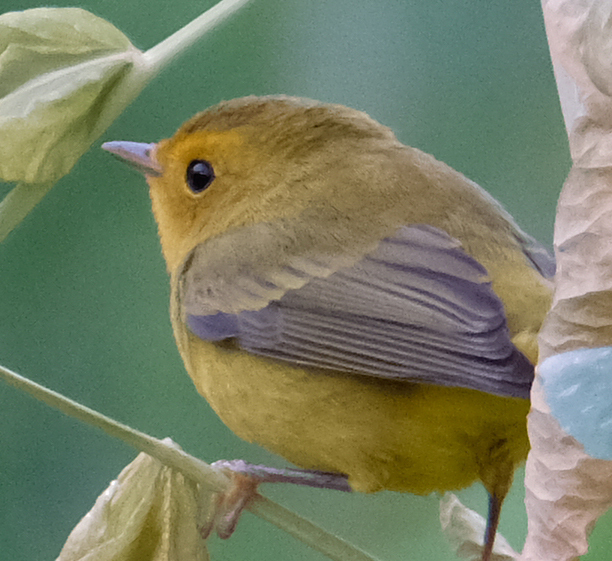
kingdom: Animalia
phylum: Chordata
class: Aves
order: Passeriformes
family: Parulidae
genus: Cardellina
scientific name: Cardellina pusilla
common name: Wilson's warbler
